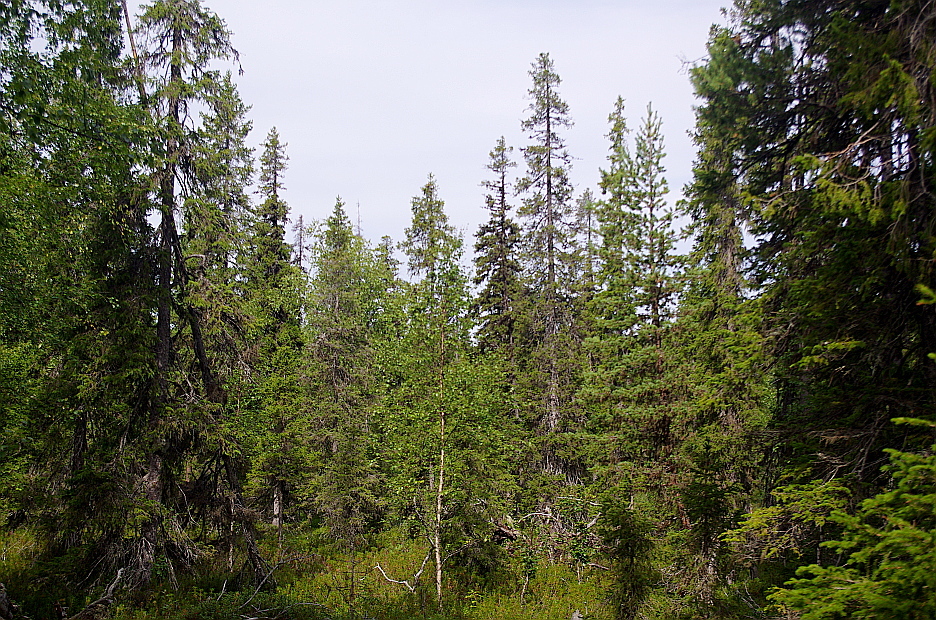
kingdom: Plantae
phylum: Tracheophyta
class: Pinopsida
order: Pinales
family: Pinaceae
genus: Picea
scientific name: Picea obovata
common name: Siberian spruce
